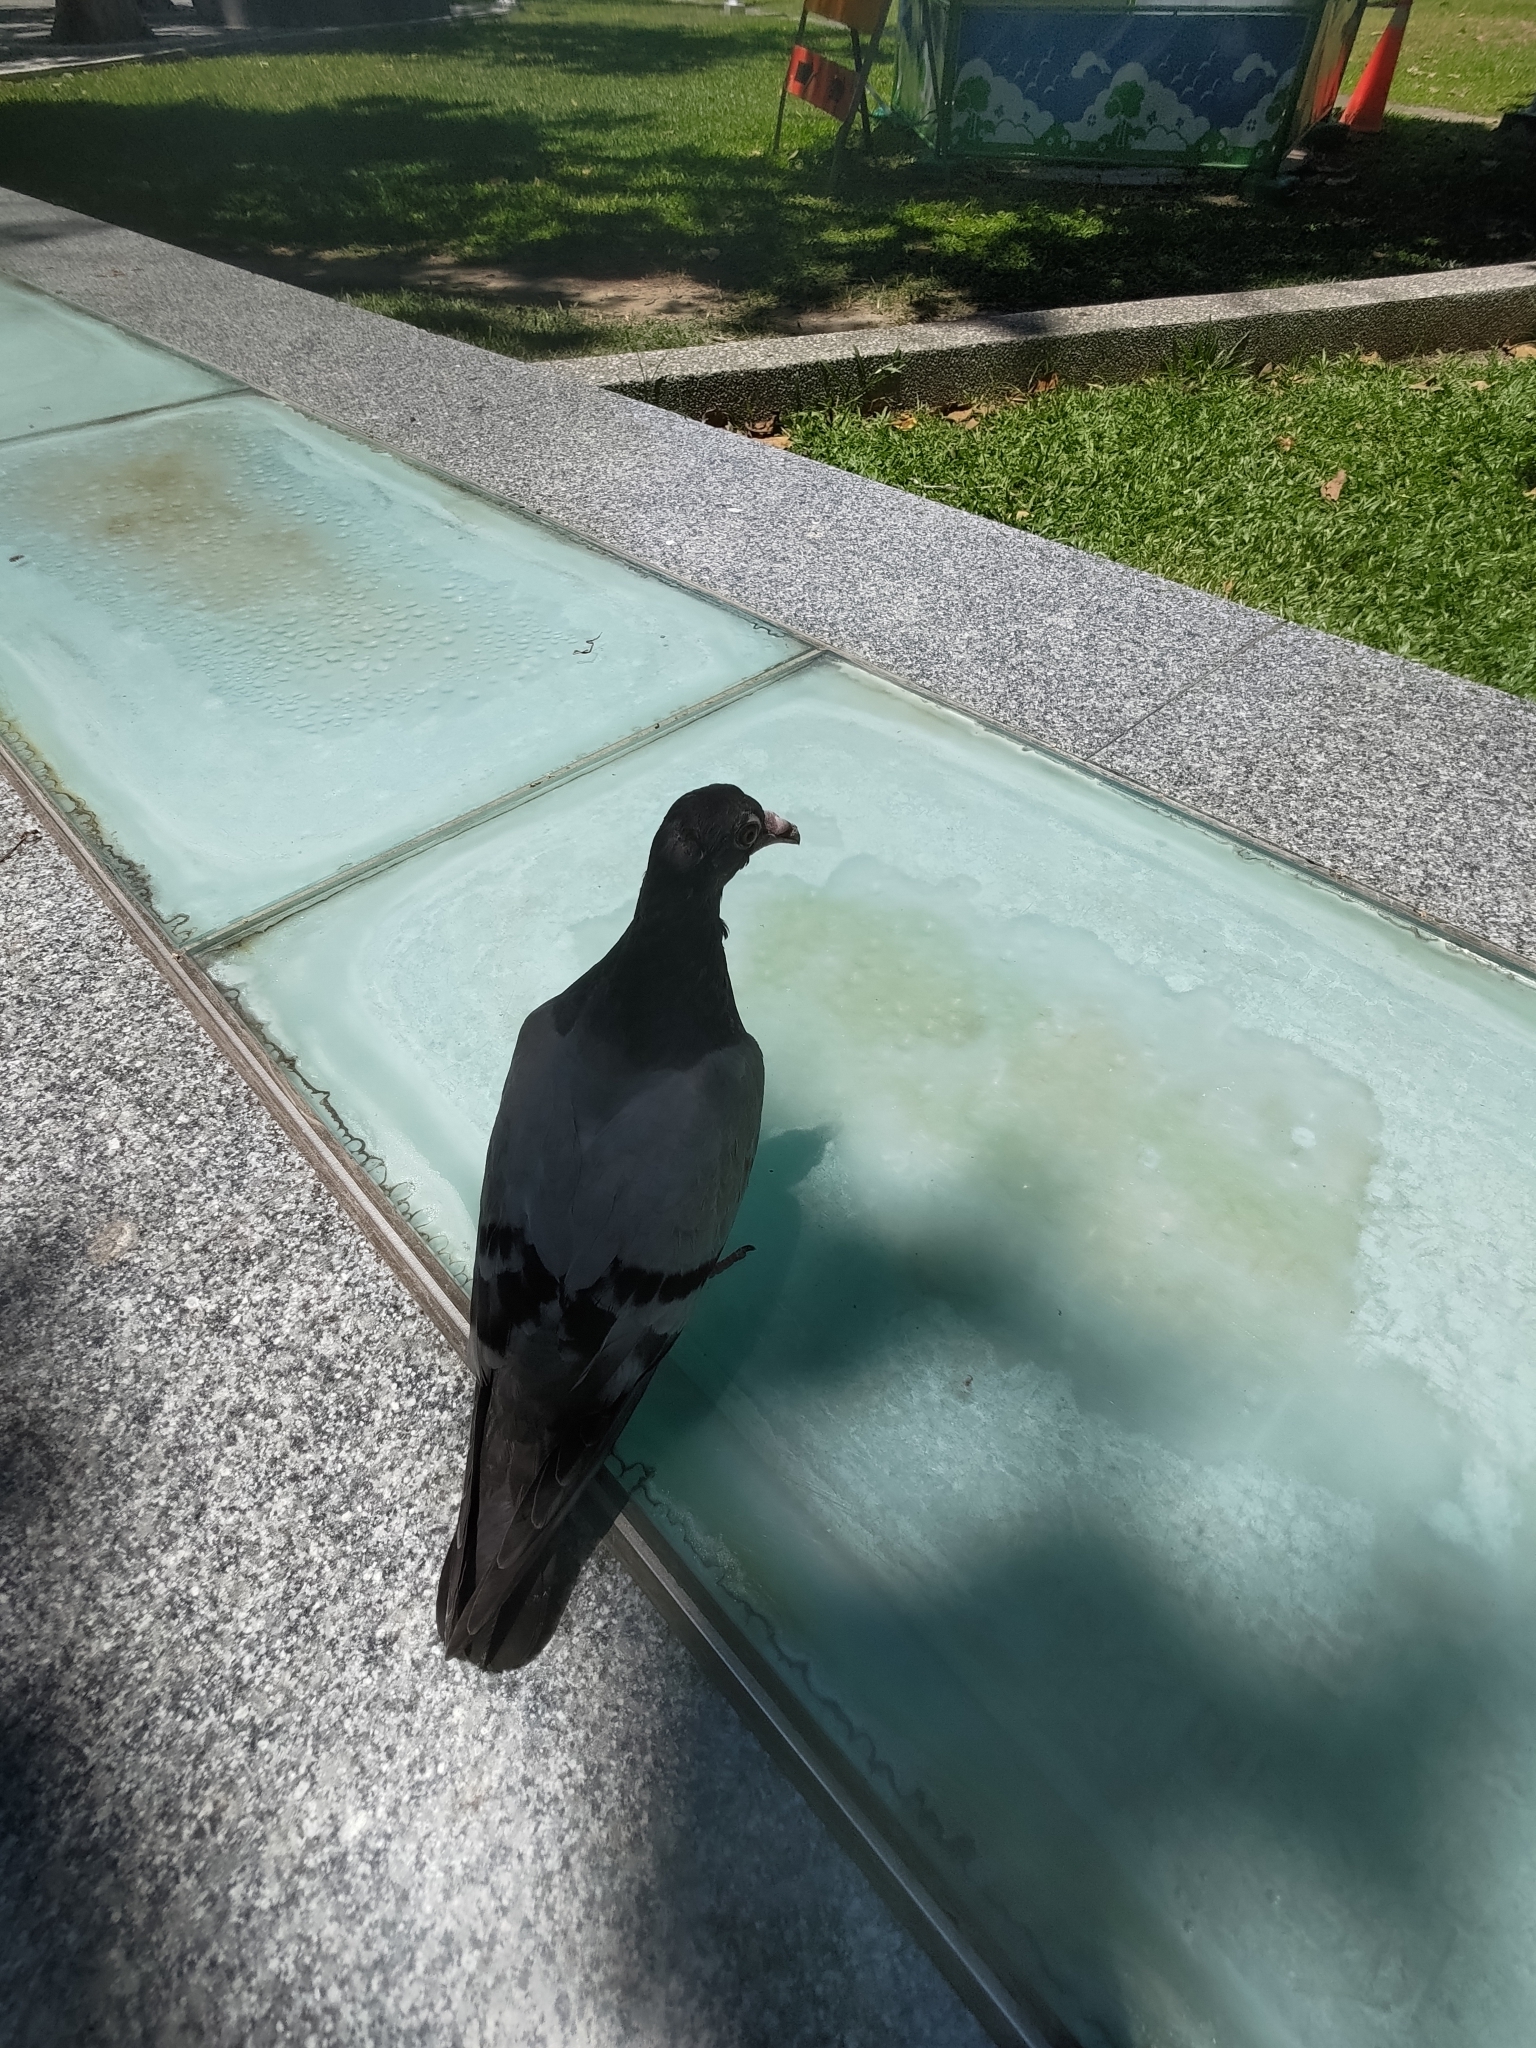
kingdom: Animalia
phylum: Chordata
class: Aves
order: Columbiformes
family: Columbidae
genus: Columba
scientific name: Columba livia
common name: Rock pigeon
